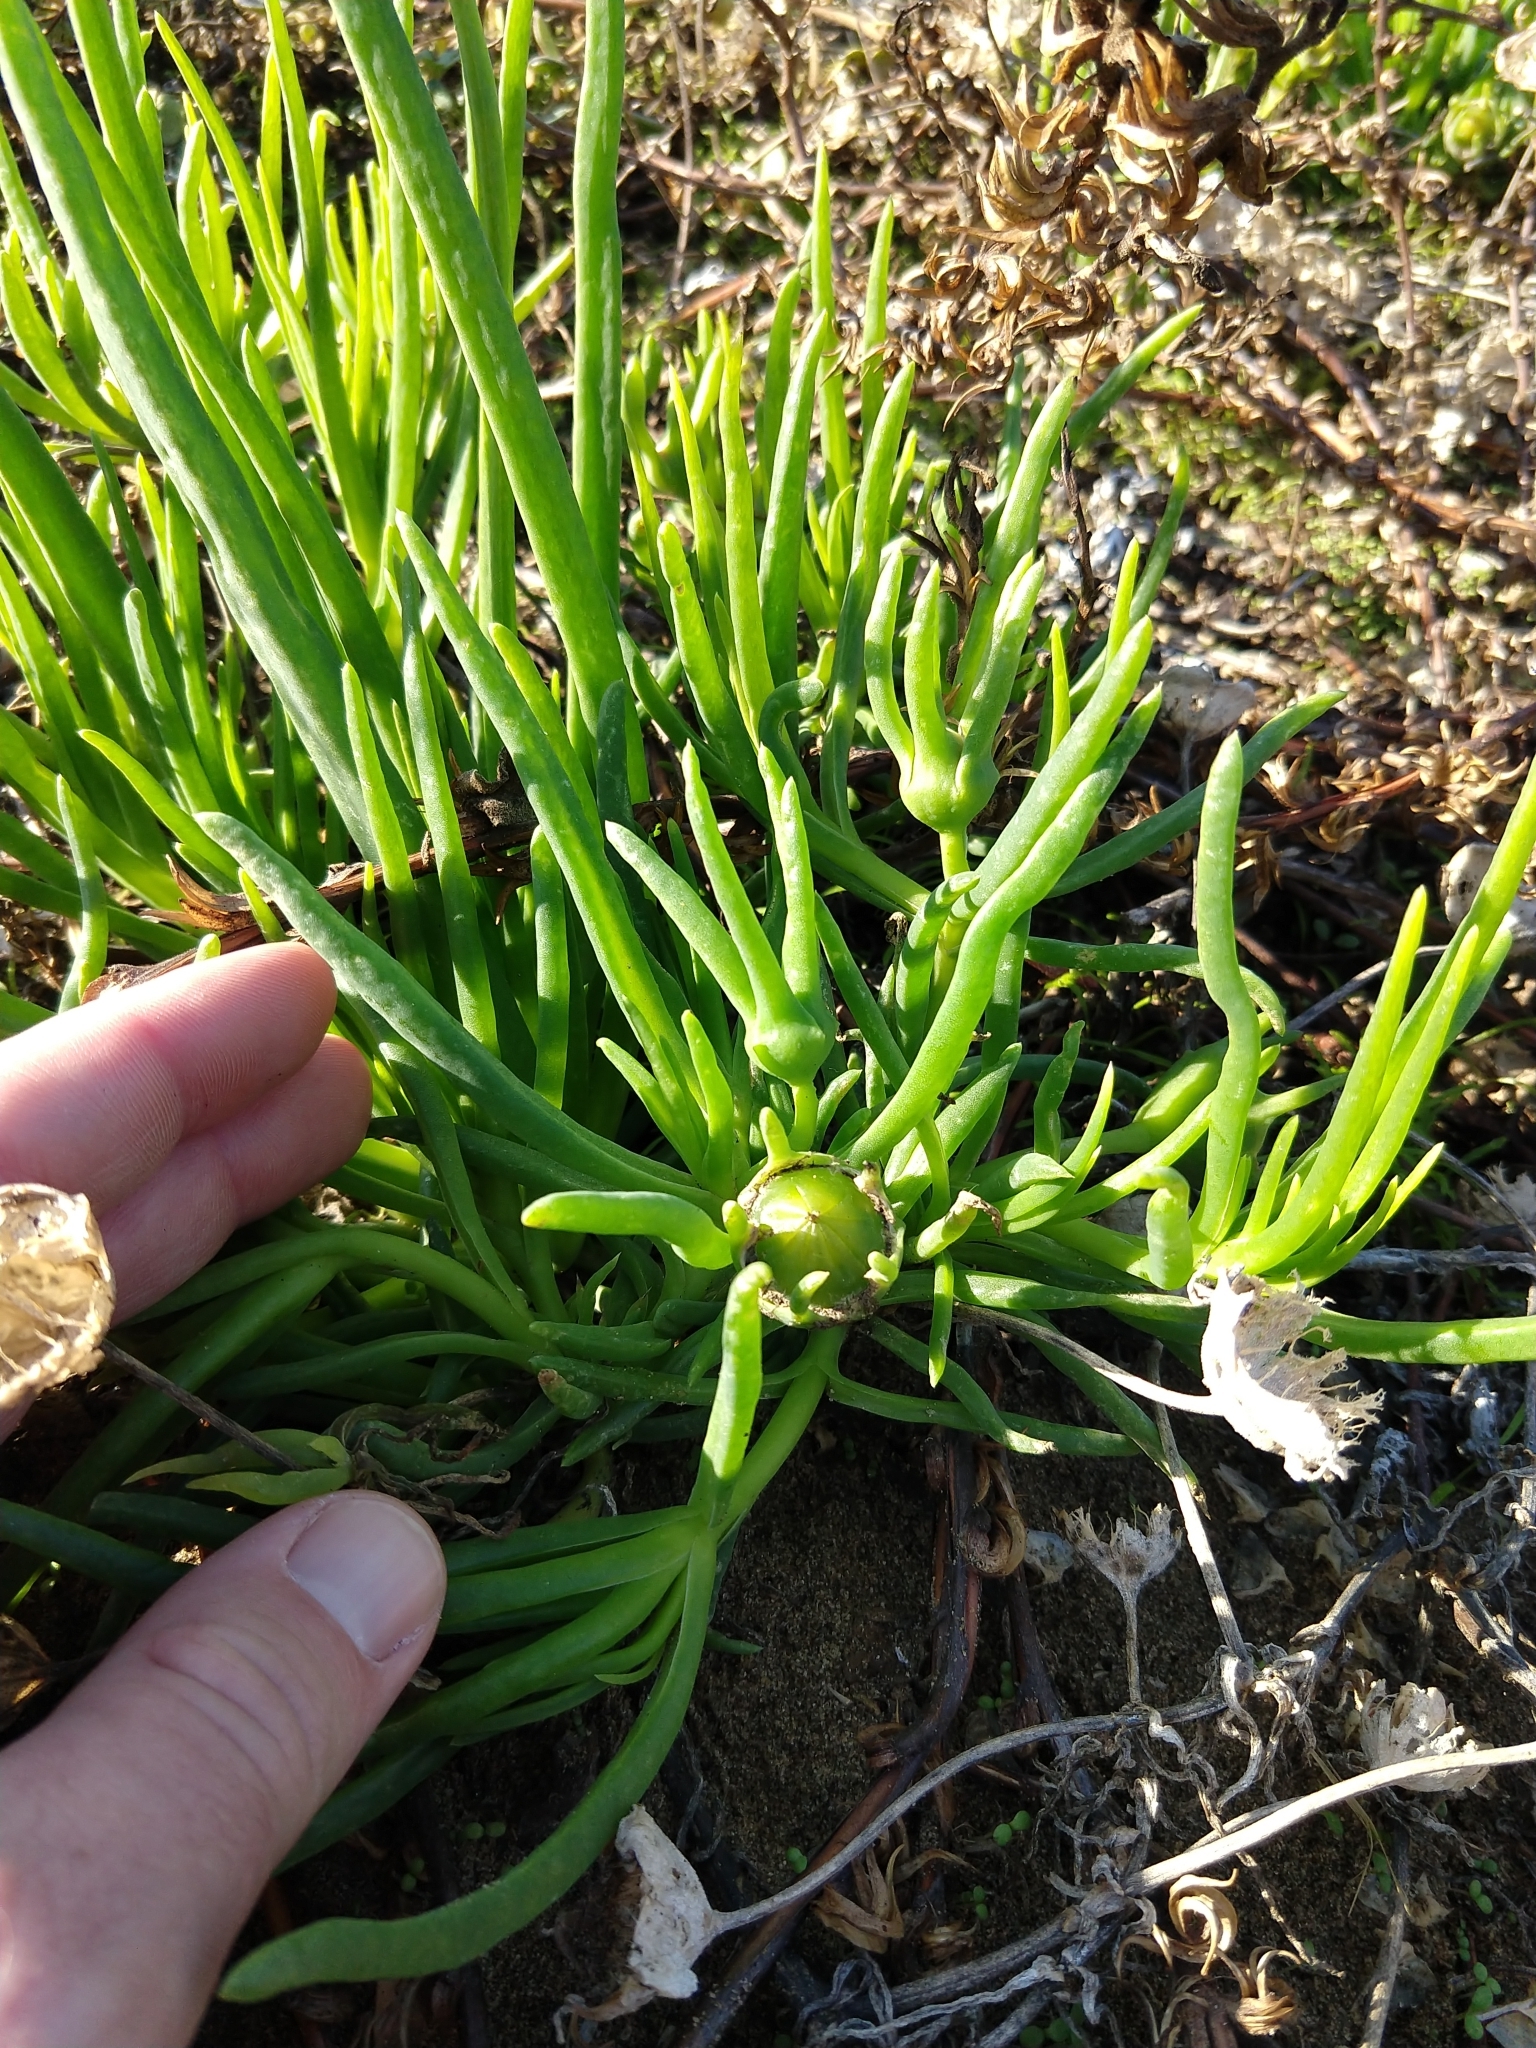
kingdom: Plantae
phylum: Tracheophyta
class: Magnoliopsida
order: Caryophyllales
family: Aizoaceae
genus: Conicosia
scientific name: Conicosia pugioniformis
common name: Narrow-leaved iceplant
